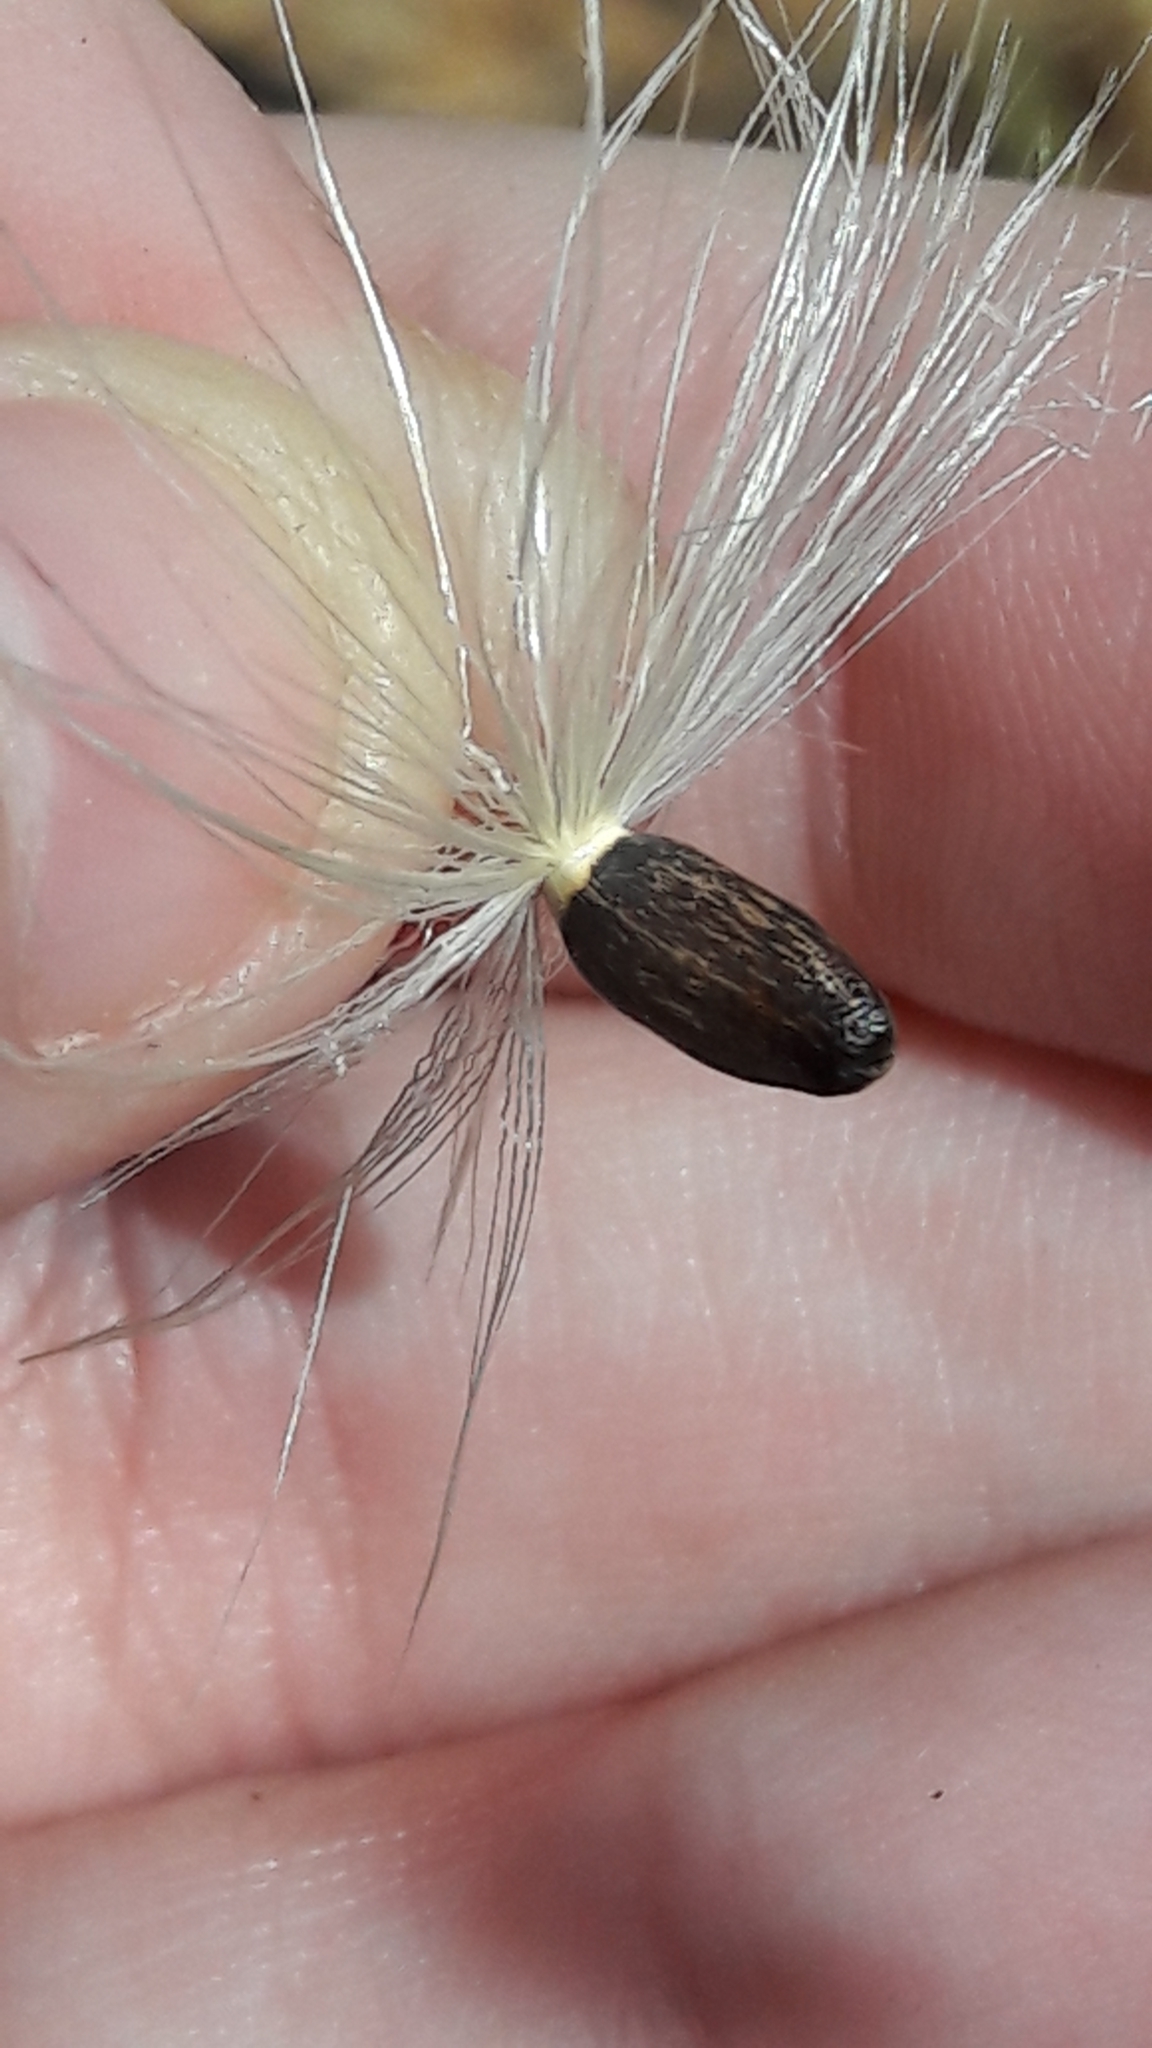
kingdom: Plantae
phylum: Tracheophyta
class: Magnoliopsida
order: Asterales
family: Asteraceae
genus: Silybum
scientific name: Silybum marianum
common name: Milk thistle
